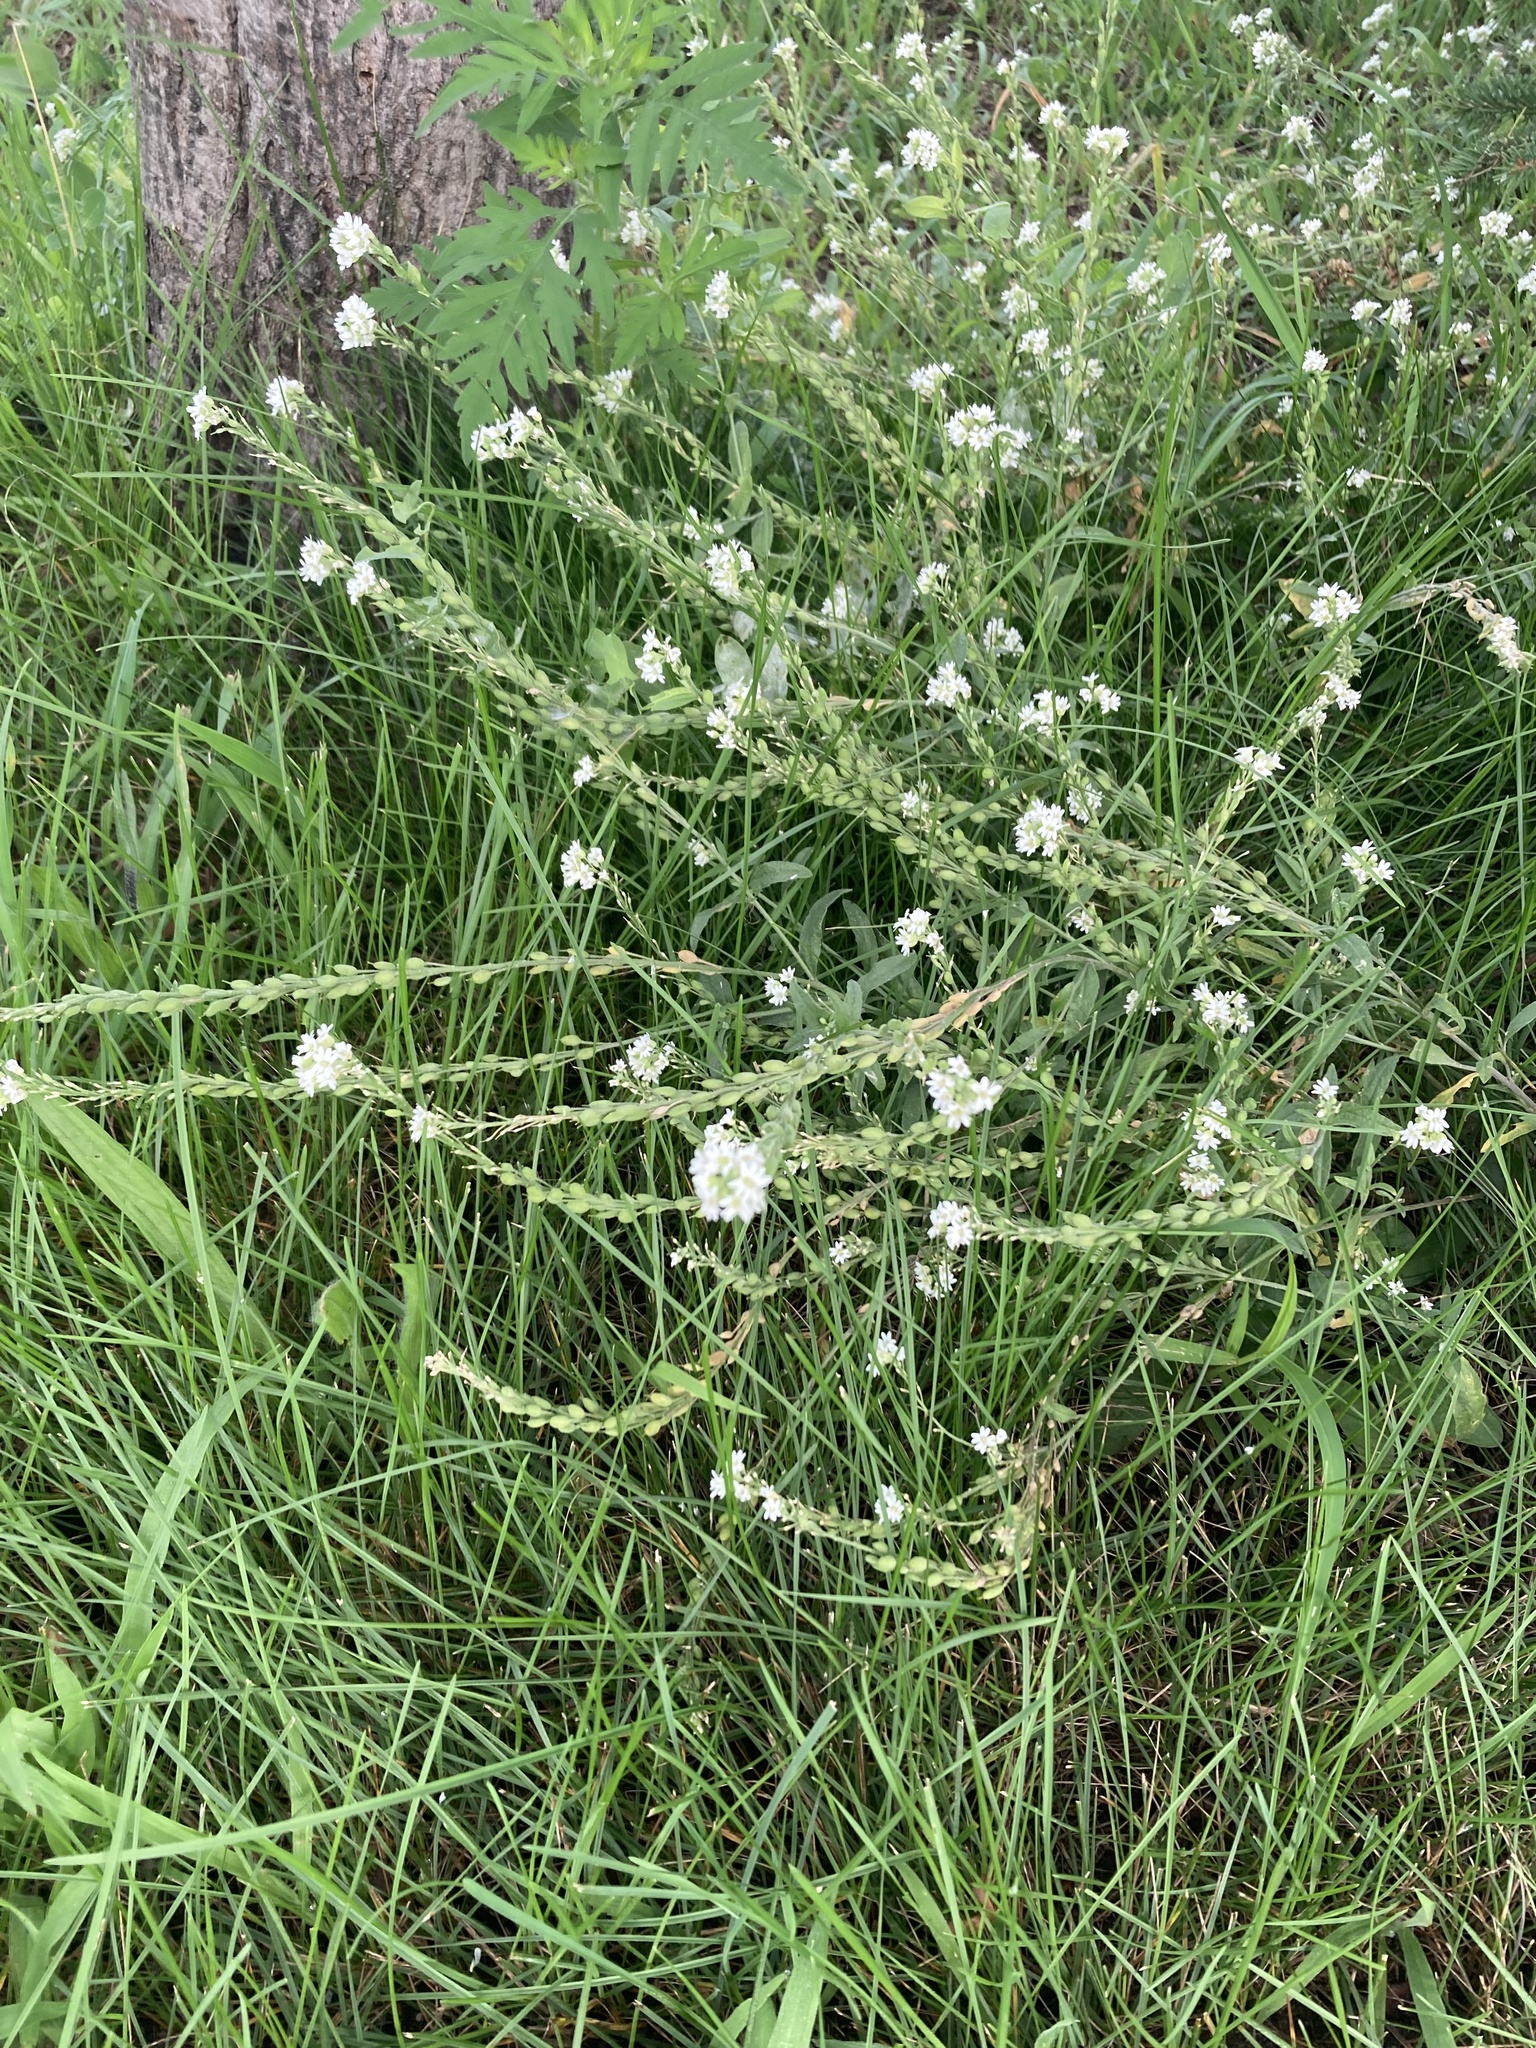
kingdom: Plantae
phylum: Tracheophyta
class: Magnoliopsida
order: Brassicales
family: Brassicaceae
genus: Berteroa
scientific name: Berteroa incana
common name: Hoary alison
